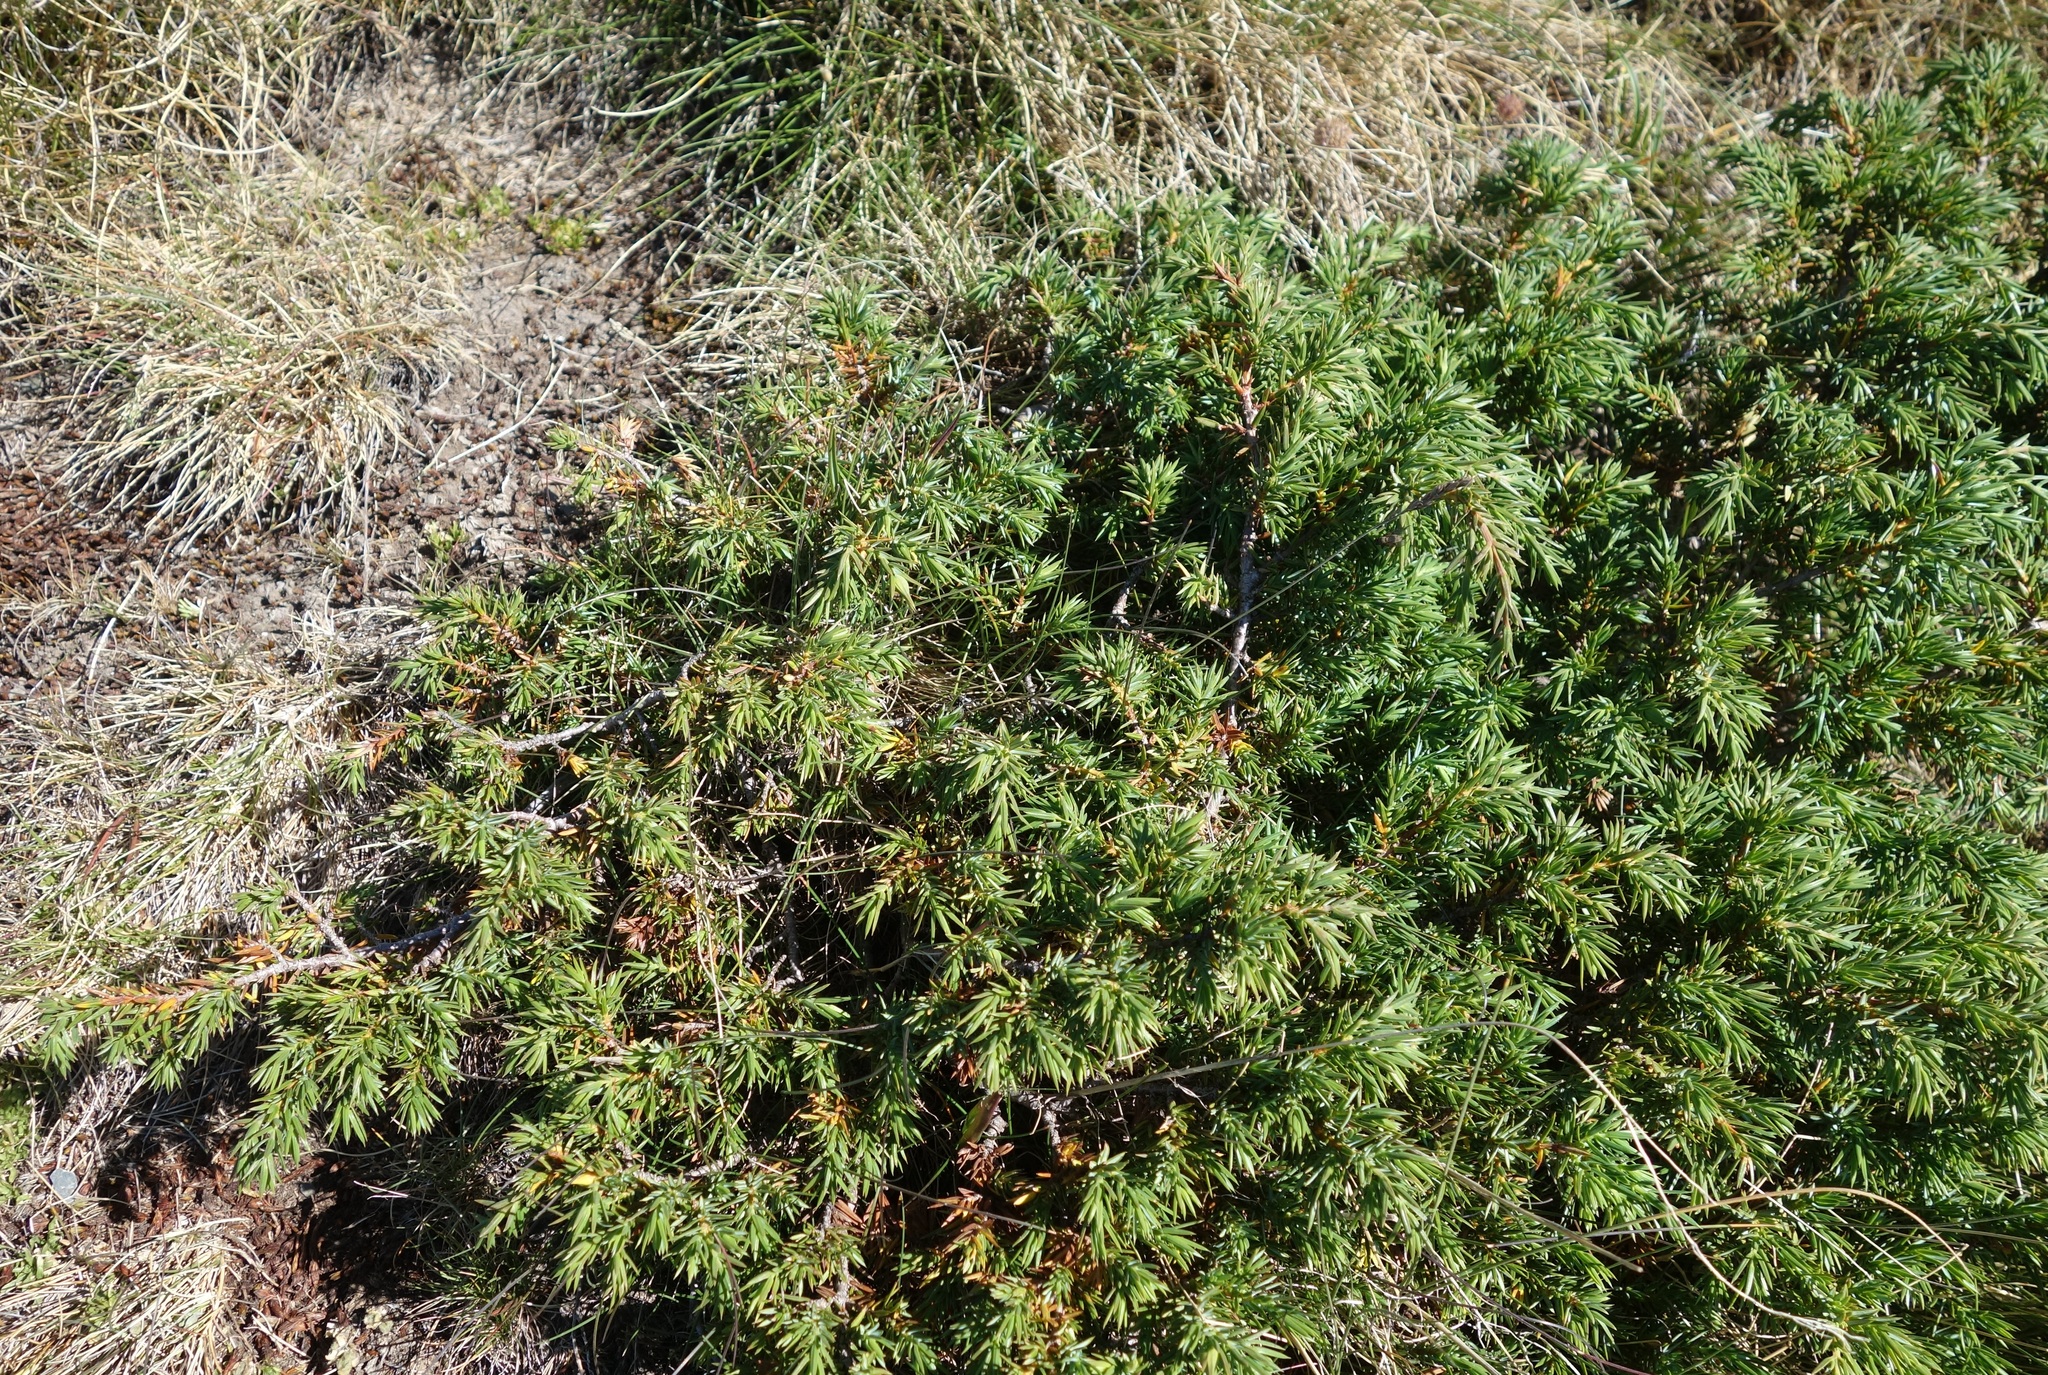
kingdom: Plantae
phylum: Tracheophyta
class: Pinopsida
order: Pinales
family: Cupressaceae
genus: Juniperus
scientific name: Juniperus communis
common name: Common juniper
